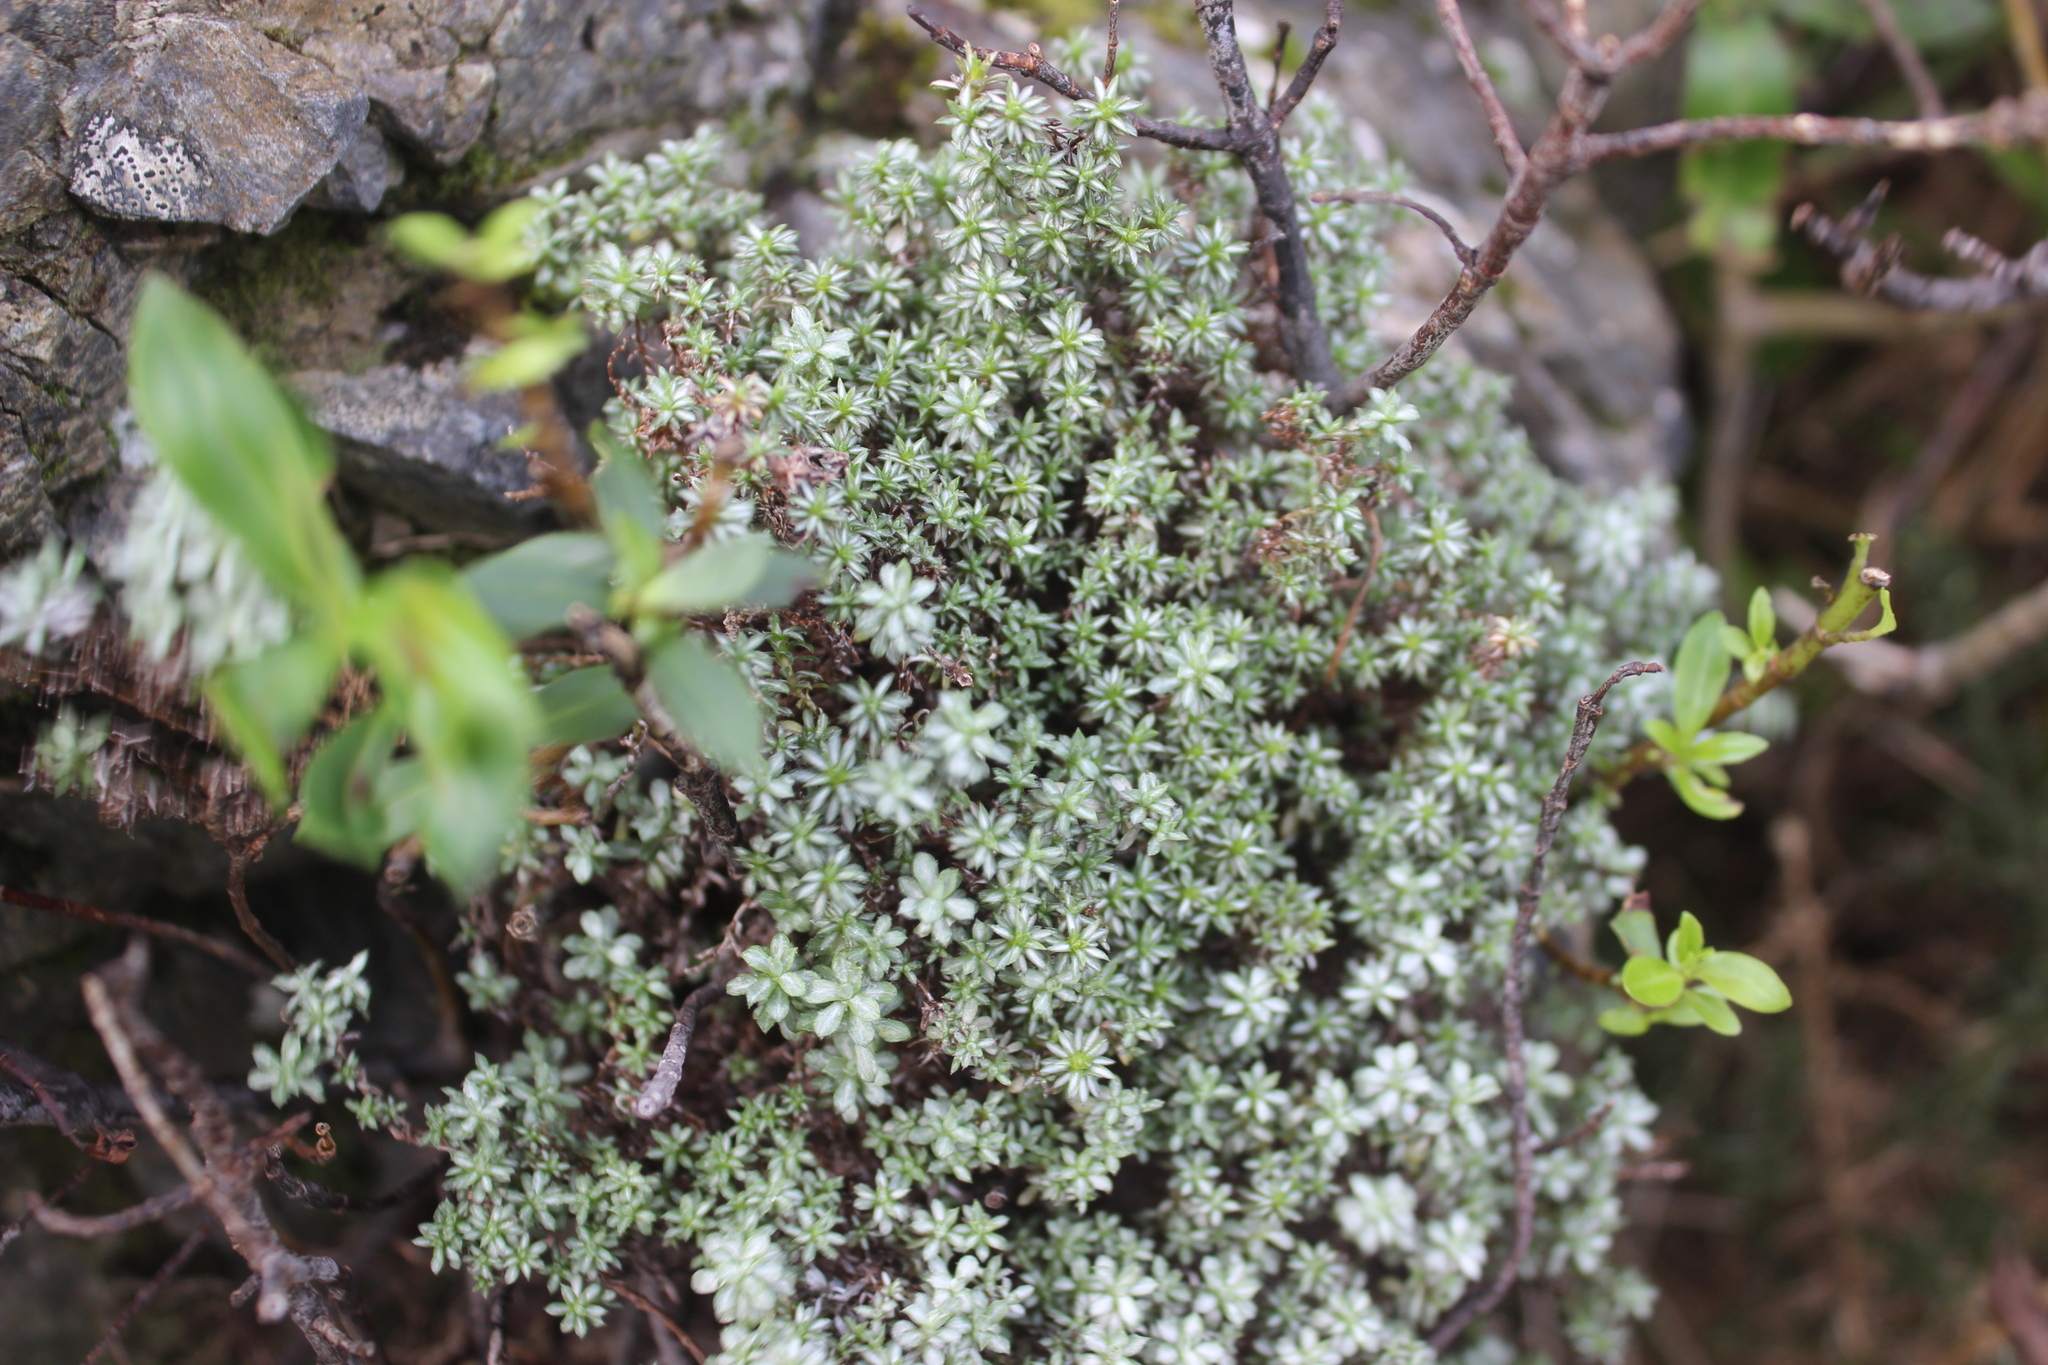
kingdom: Plantae
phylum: Tracheophyta
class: Magnoliopsida
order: Asterales
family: Asteraceae
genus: Raoulia
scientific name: Raoulia tenuicaulis
